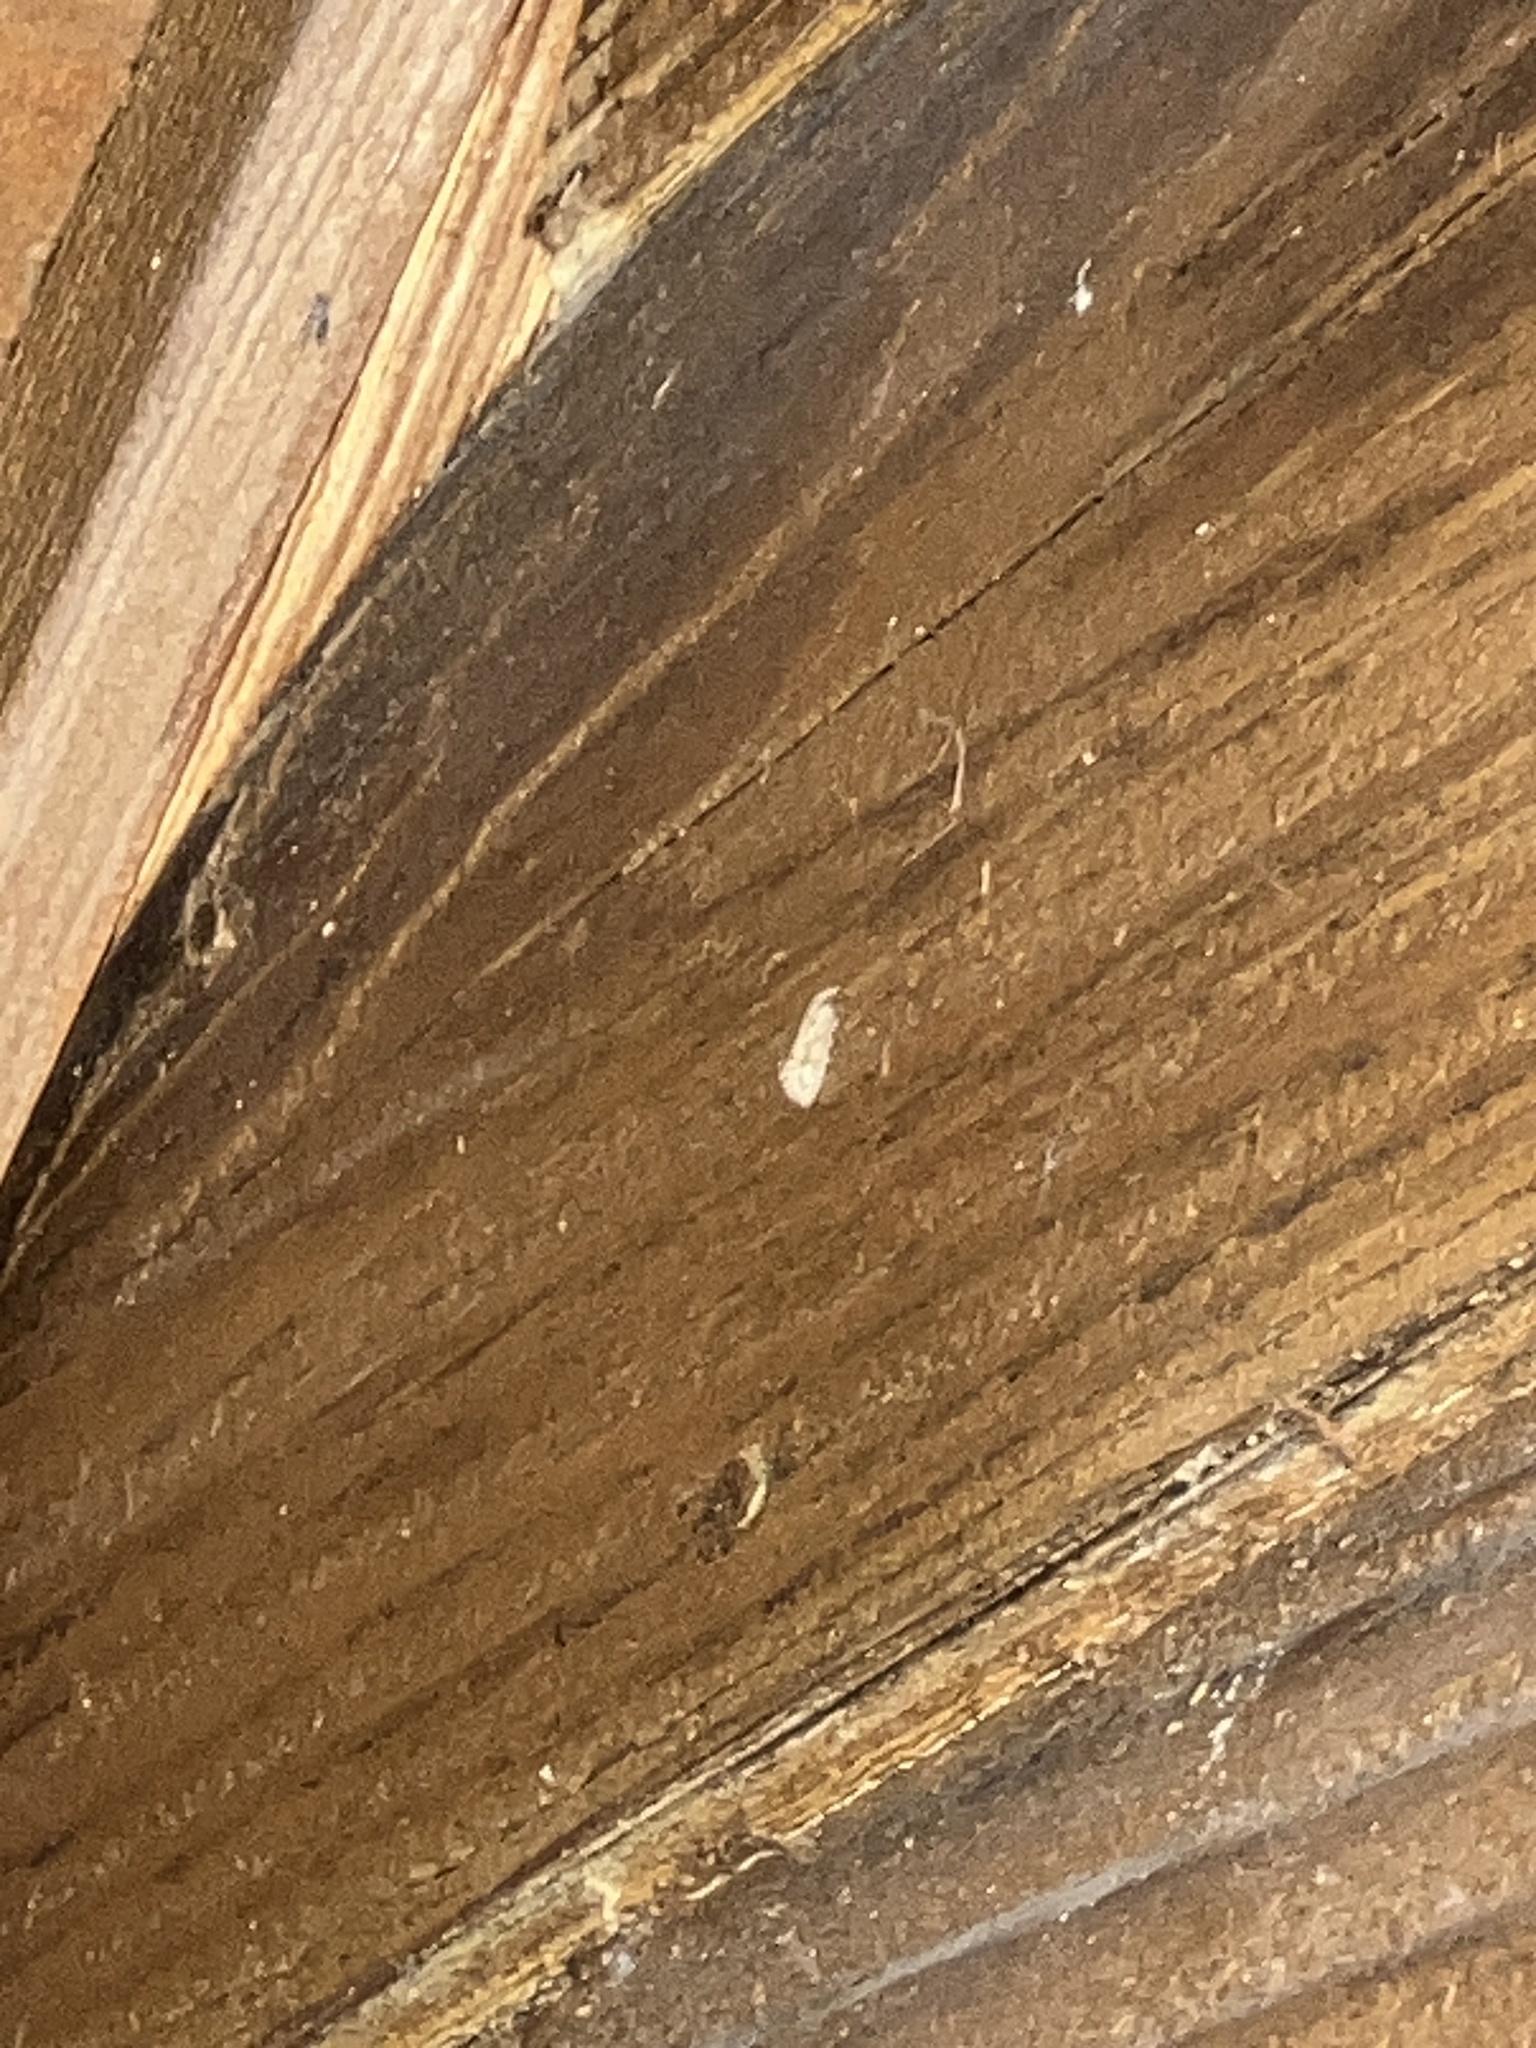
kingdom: Animalia
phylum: Arthropoda
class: Insecta
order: Lepidoptera
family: Tineidae
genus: Acrolophus
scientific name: Acrolophus walsinghami
